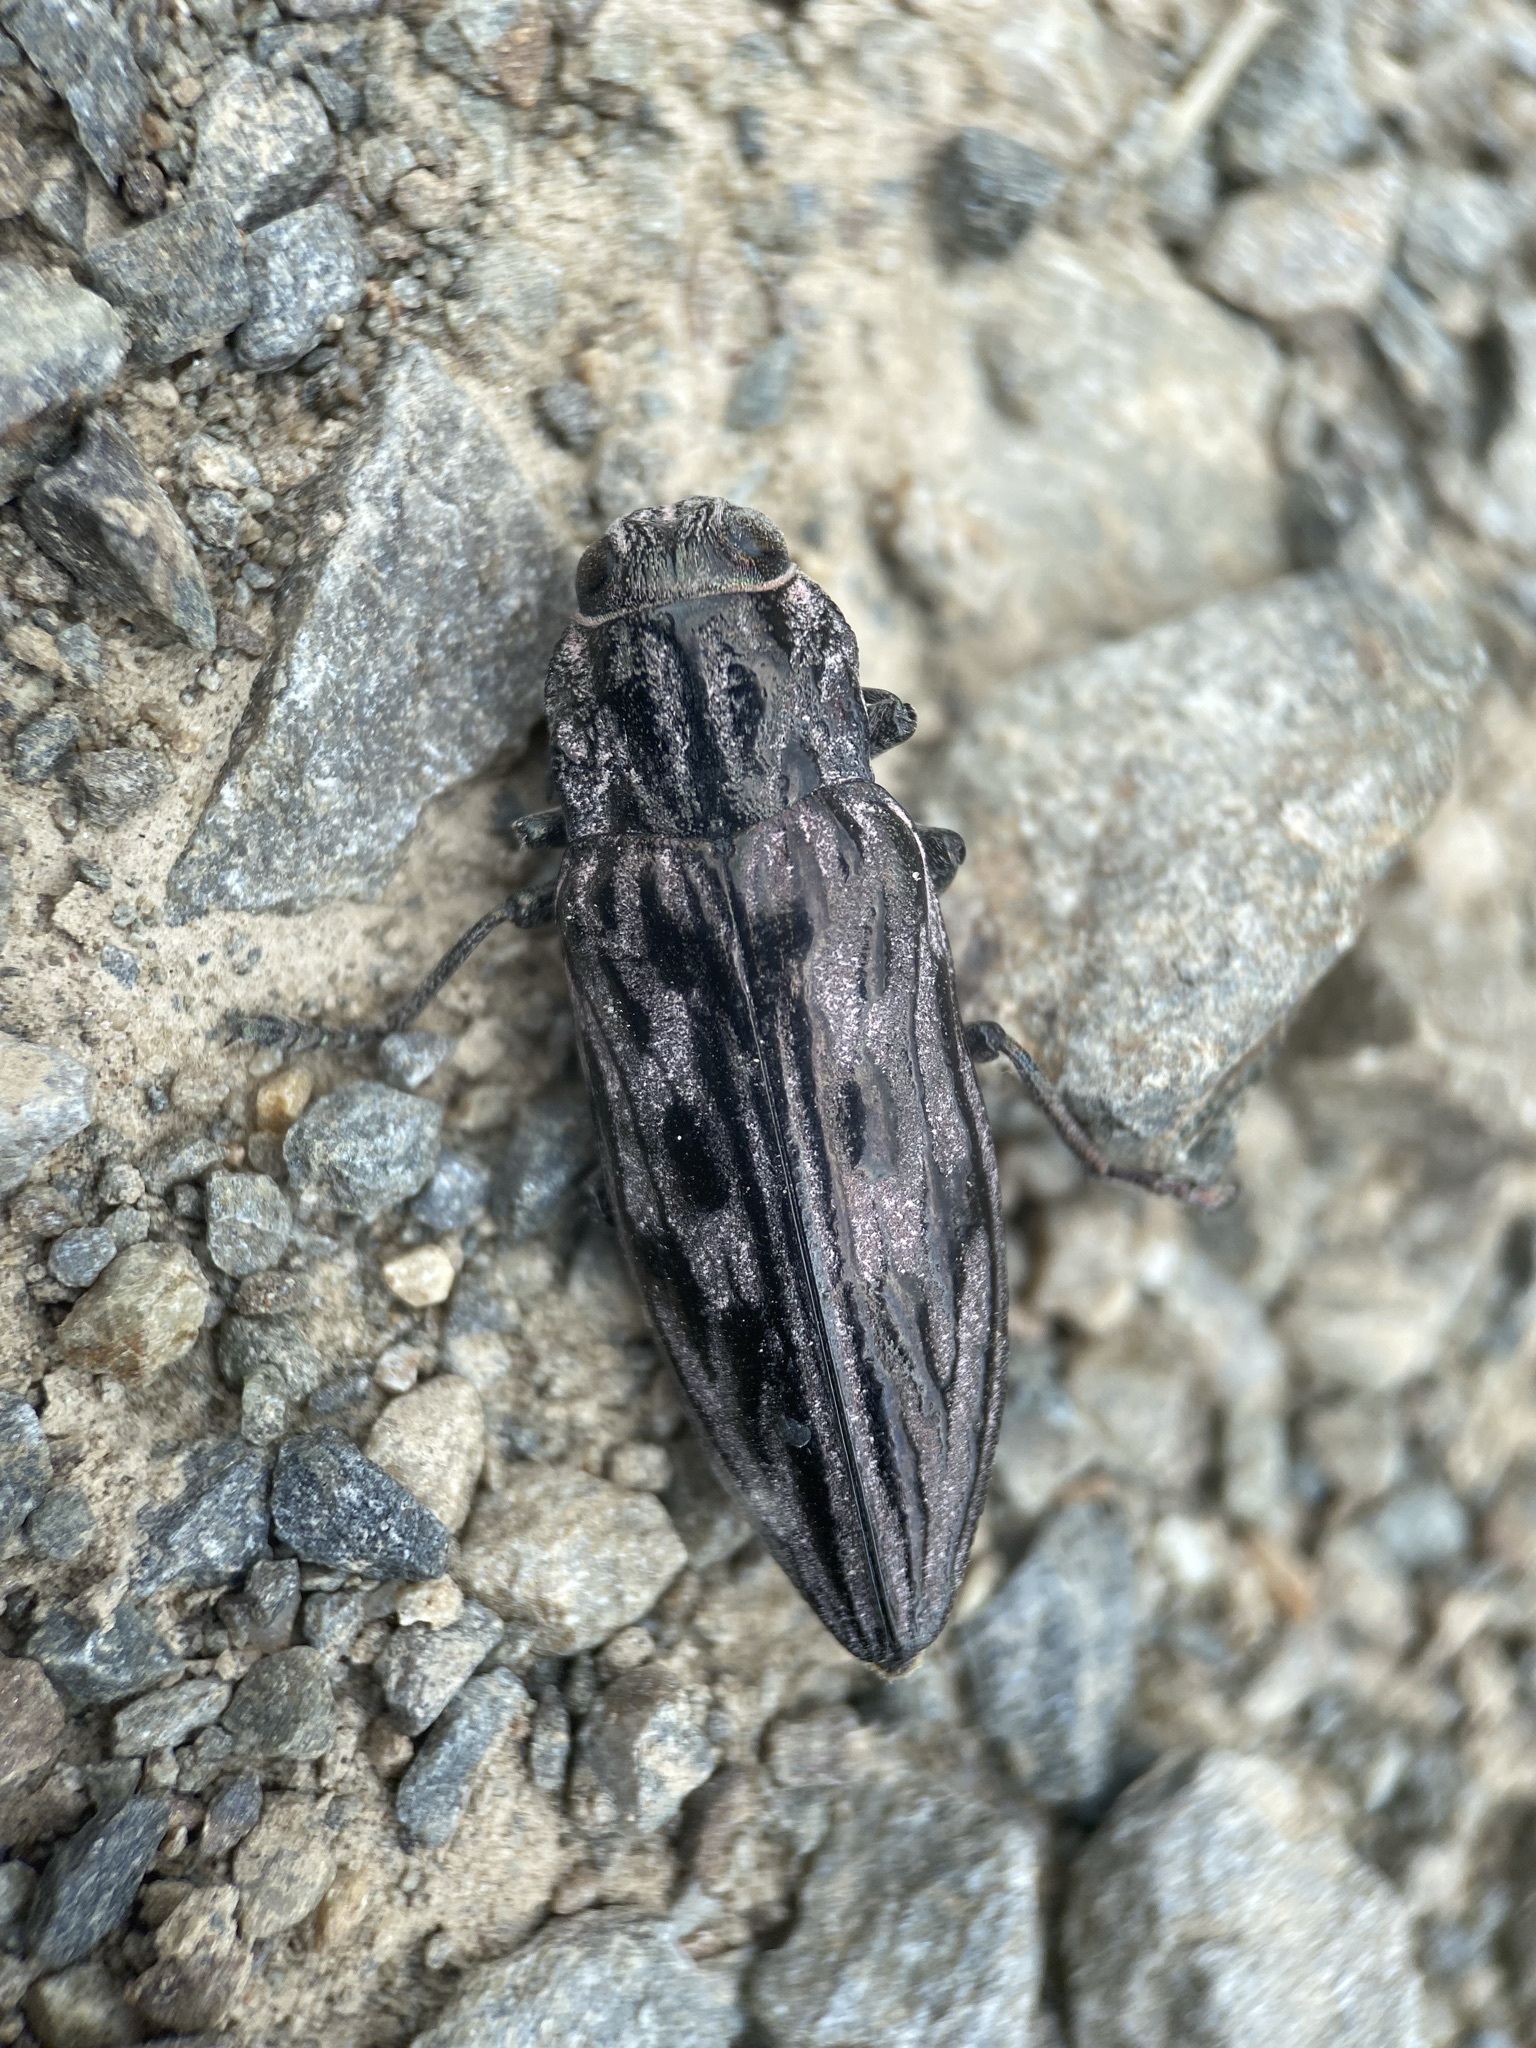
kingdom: Animalia
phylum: Arthropoda
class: Insecta
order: Coleoptera
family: Buprestidae
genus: Chalcophora
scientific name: Chalcophora angulicollis
